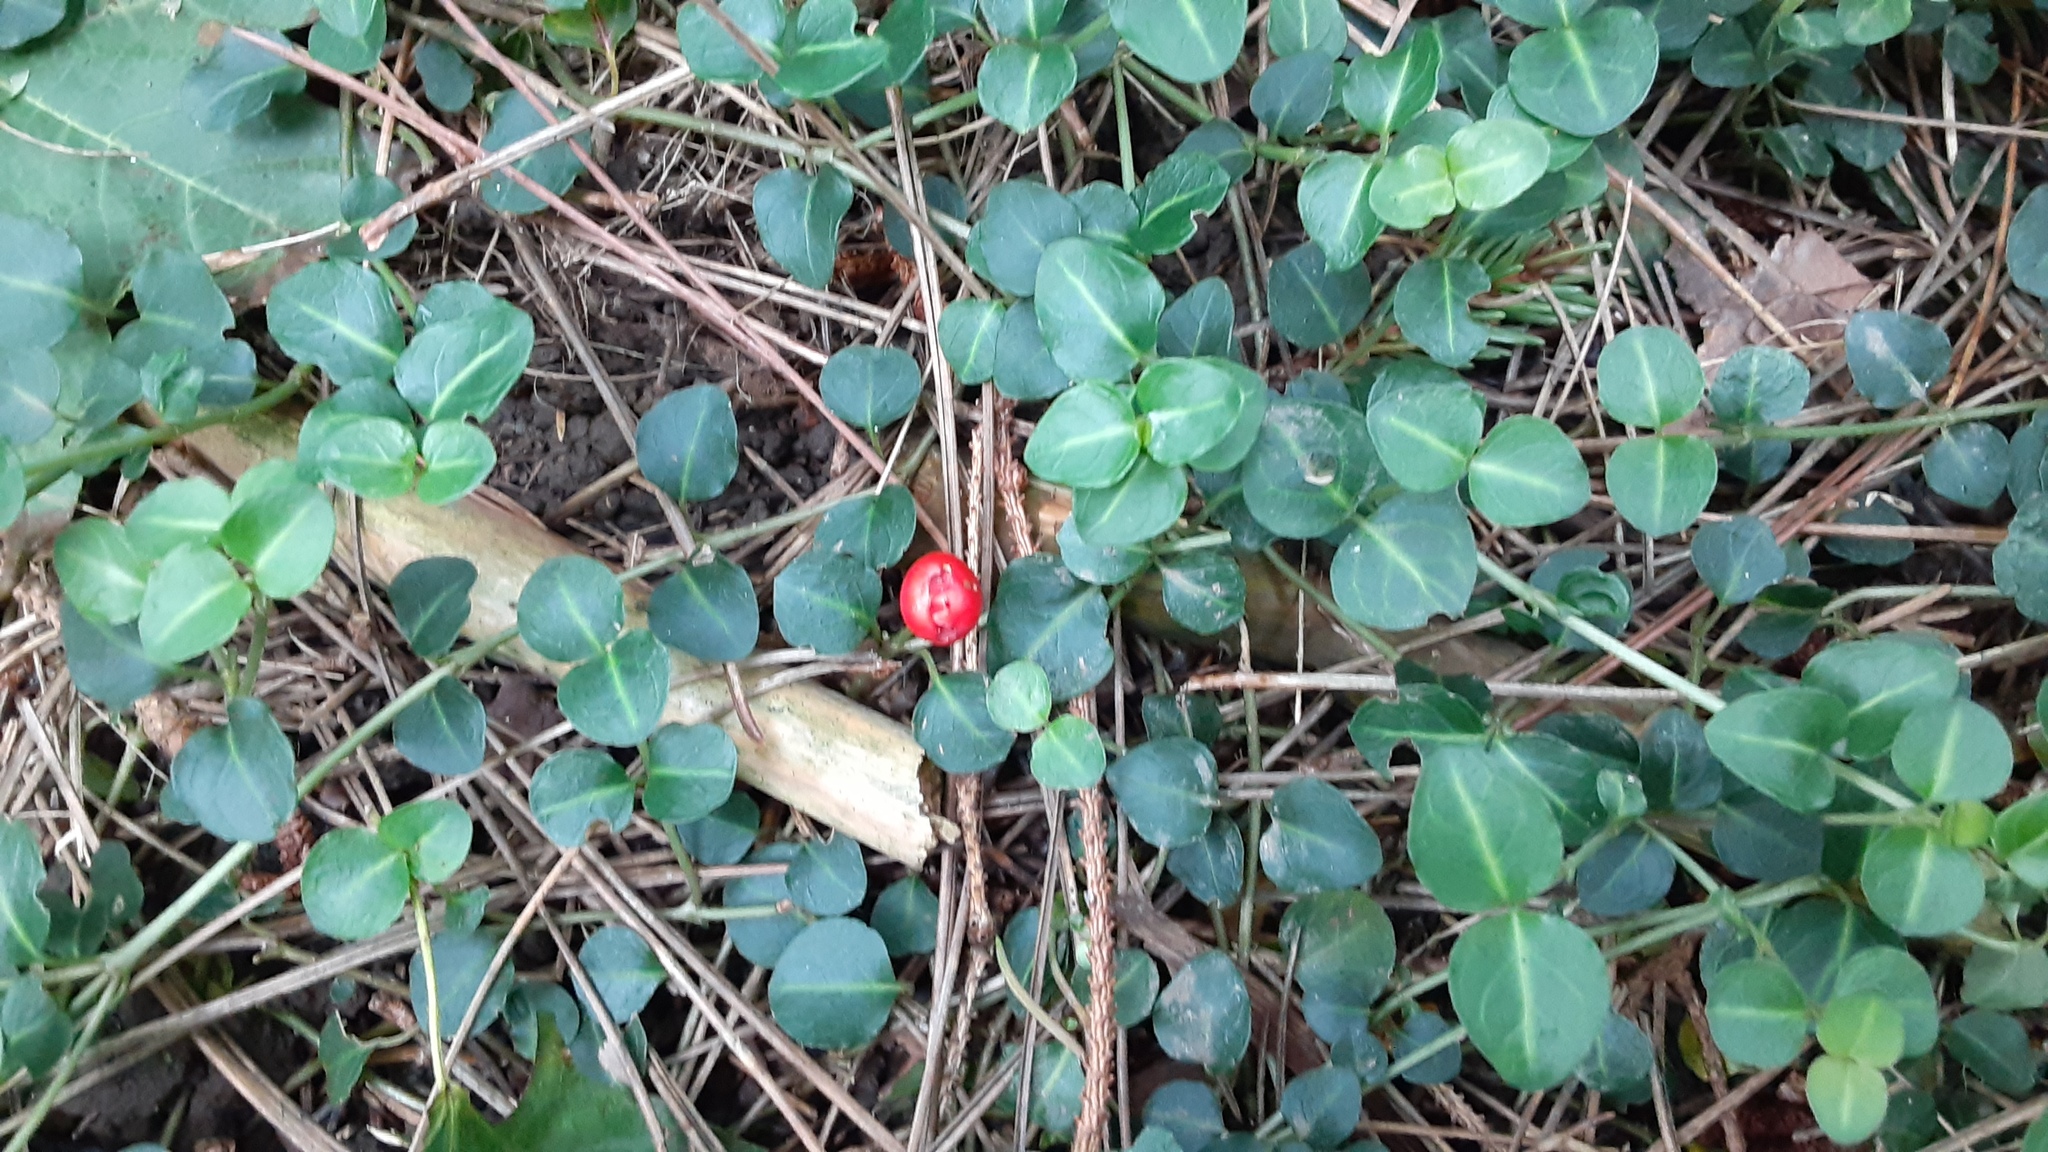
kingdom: Plantae
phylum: Tracheophyta
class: Magnoliopsida
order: Gentianales
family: Rubiaceae
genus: Mitchella
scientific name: Mitchella repens
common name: Partridge-berry
